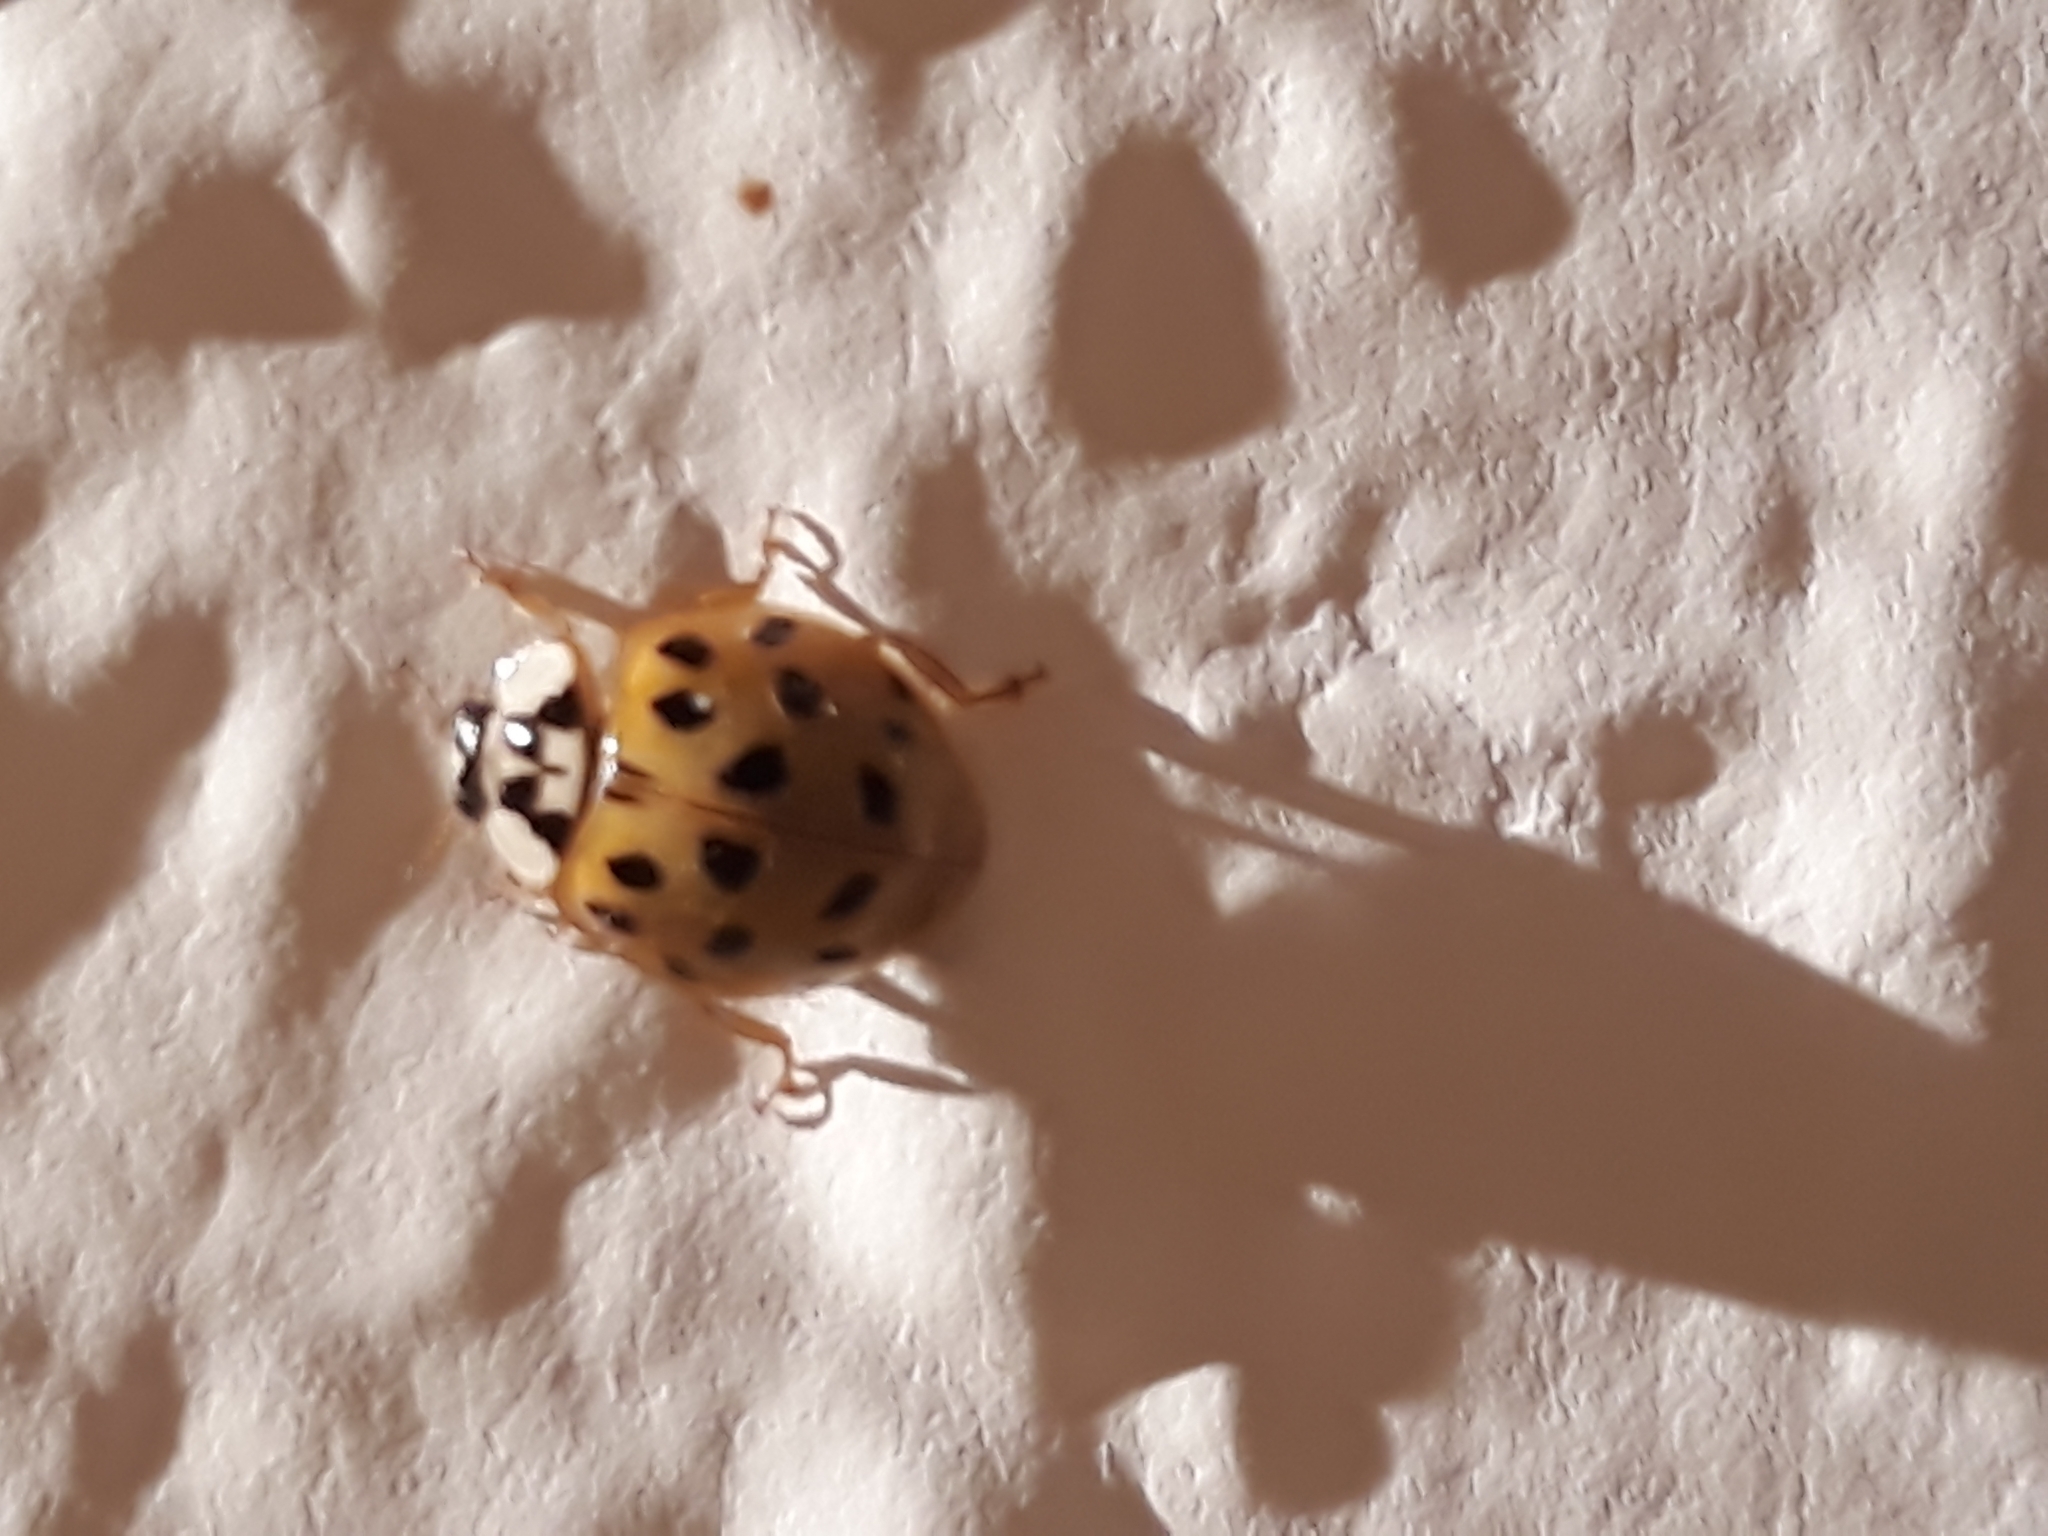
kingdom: Animalia
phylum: Arthropoda
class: Insecta
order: Coleoptera
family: Coccinellidae
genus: Harmonia
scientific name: Harmonia axyridis
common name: Harlequin ladybird
